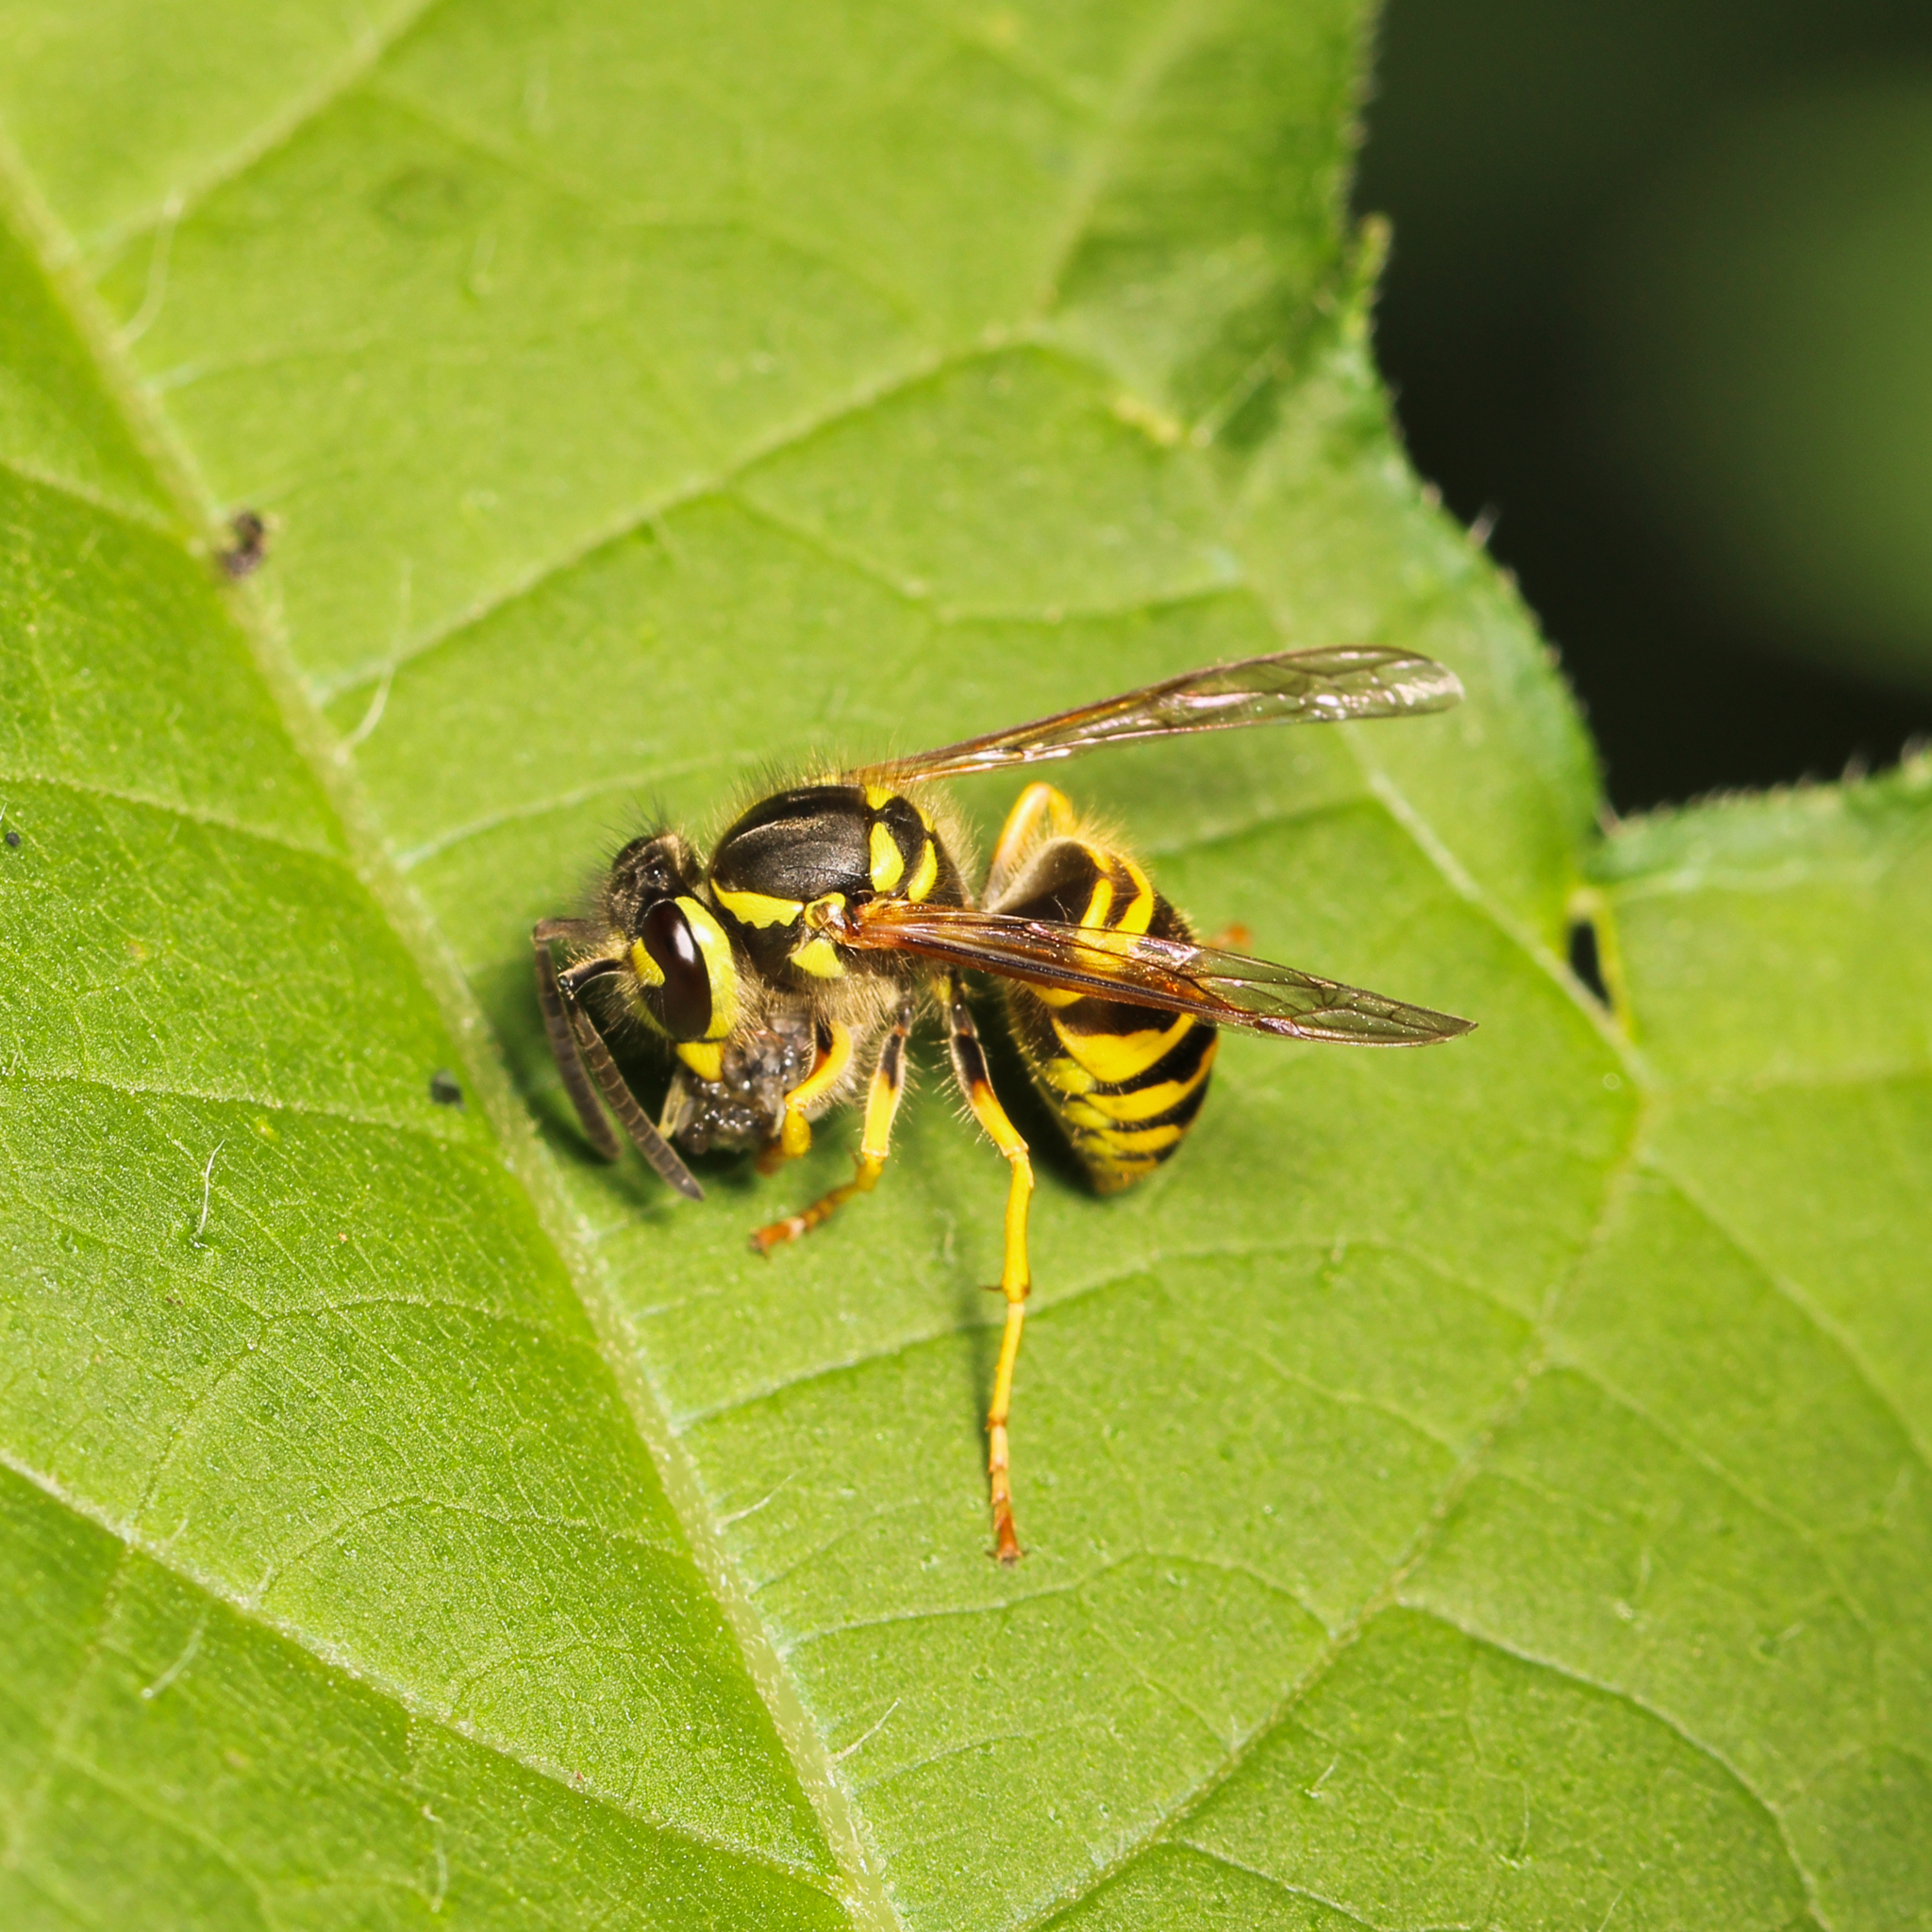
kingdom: Animalia
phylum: Arthropoda
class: Insecta
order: Hymenoptera
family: Vespidae
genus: Vespula
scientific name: Vespula maculifrons
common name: Eastern yellowjacket
